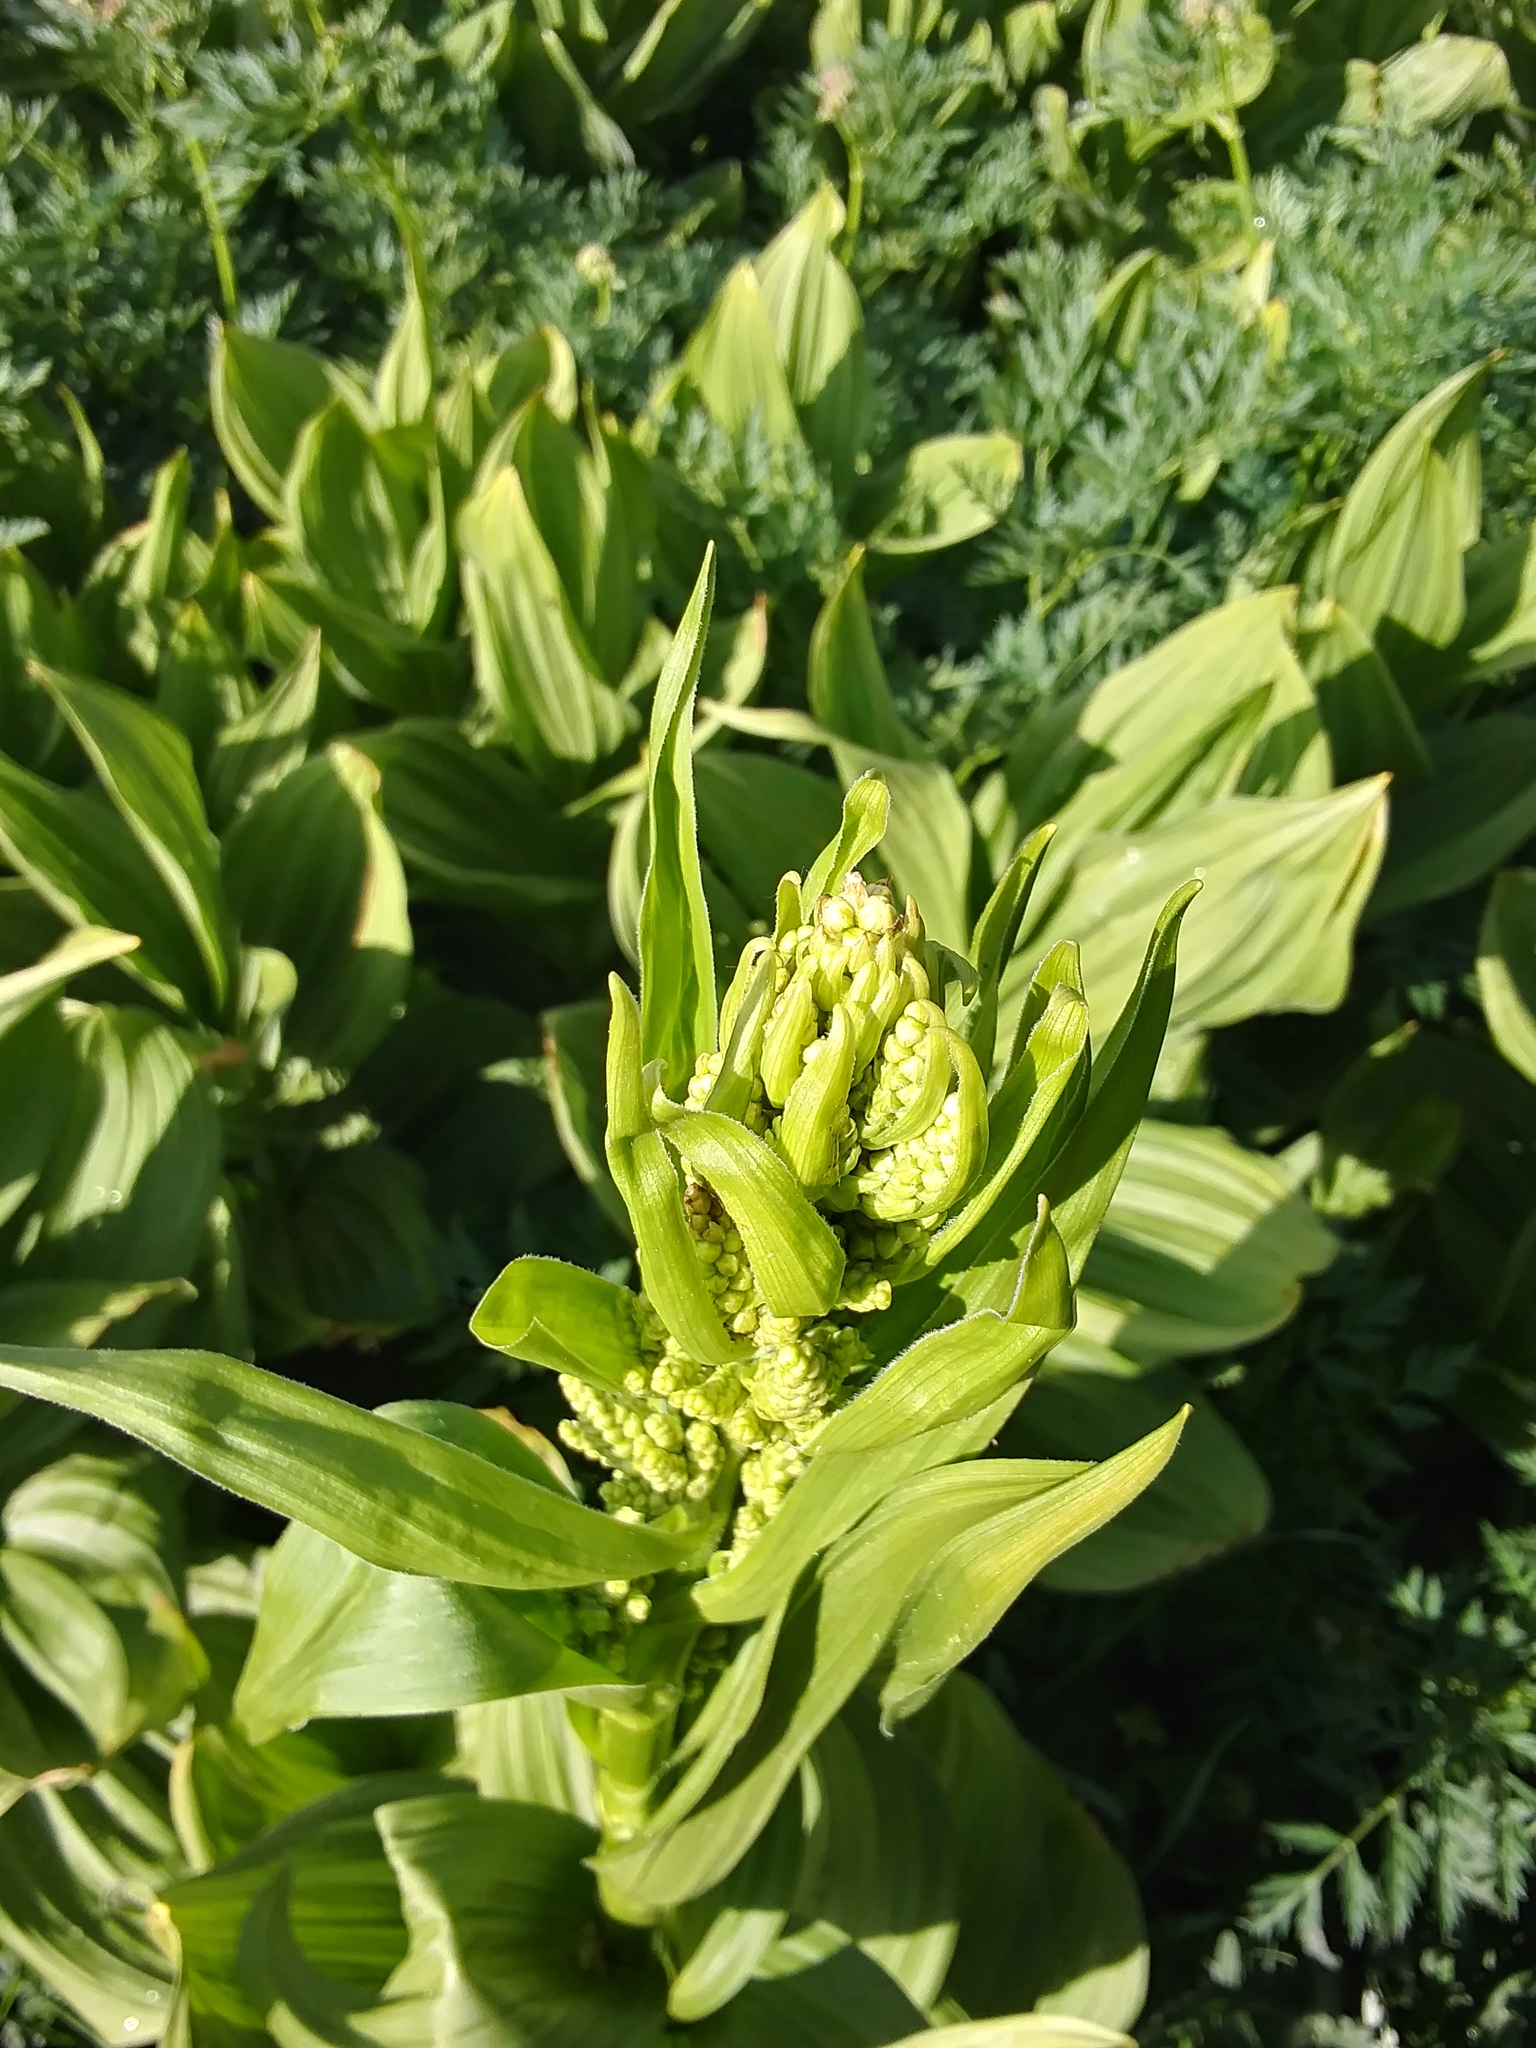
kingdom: Plantae
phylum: Tracheophyta
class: Liliopsida
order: Liliales
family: Melanthiaceae
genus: Veratrum
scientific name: Veratrum californicum
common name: California veratrum
